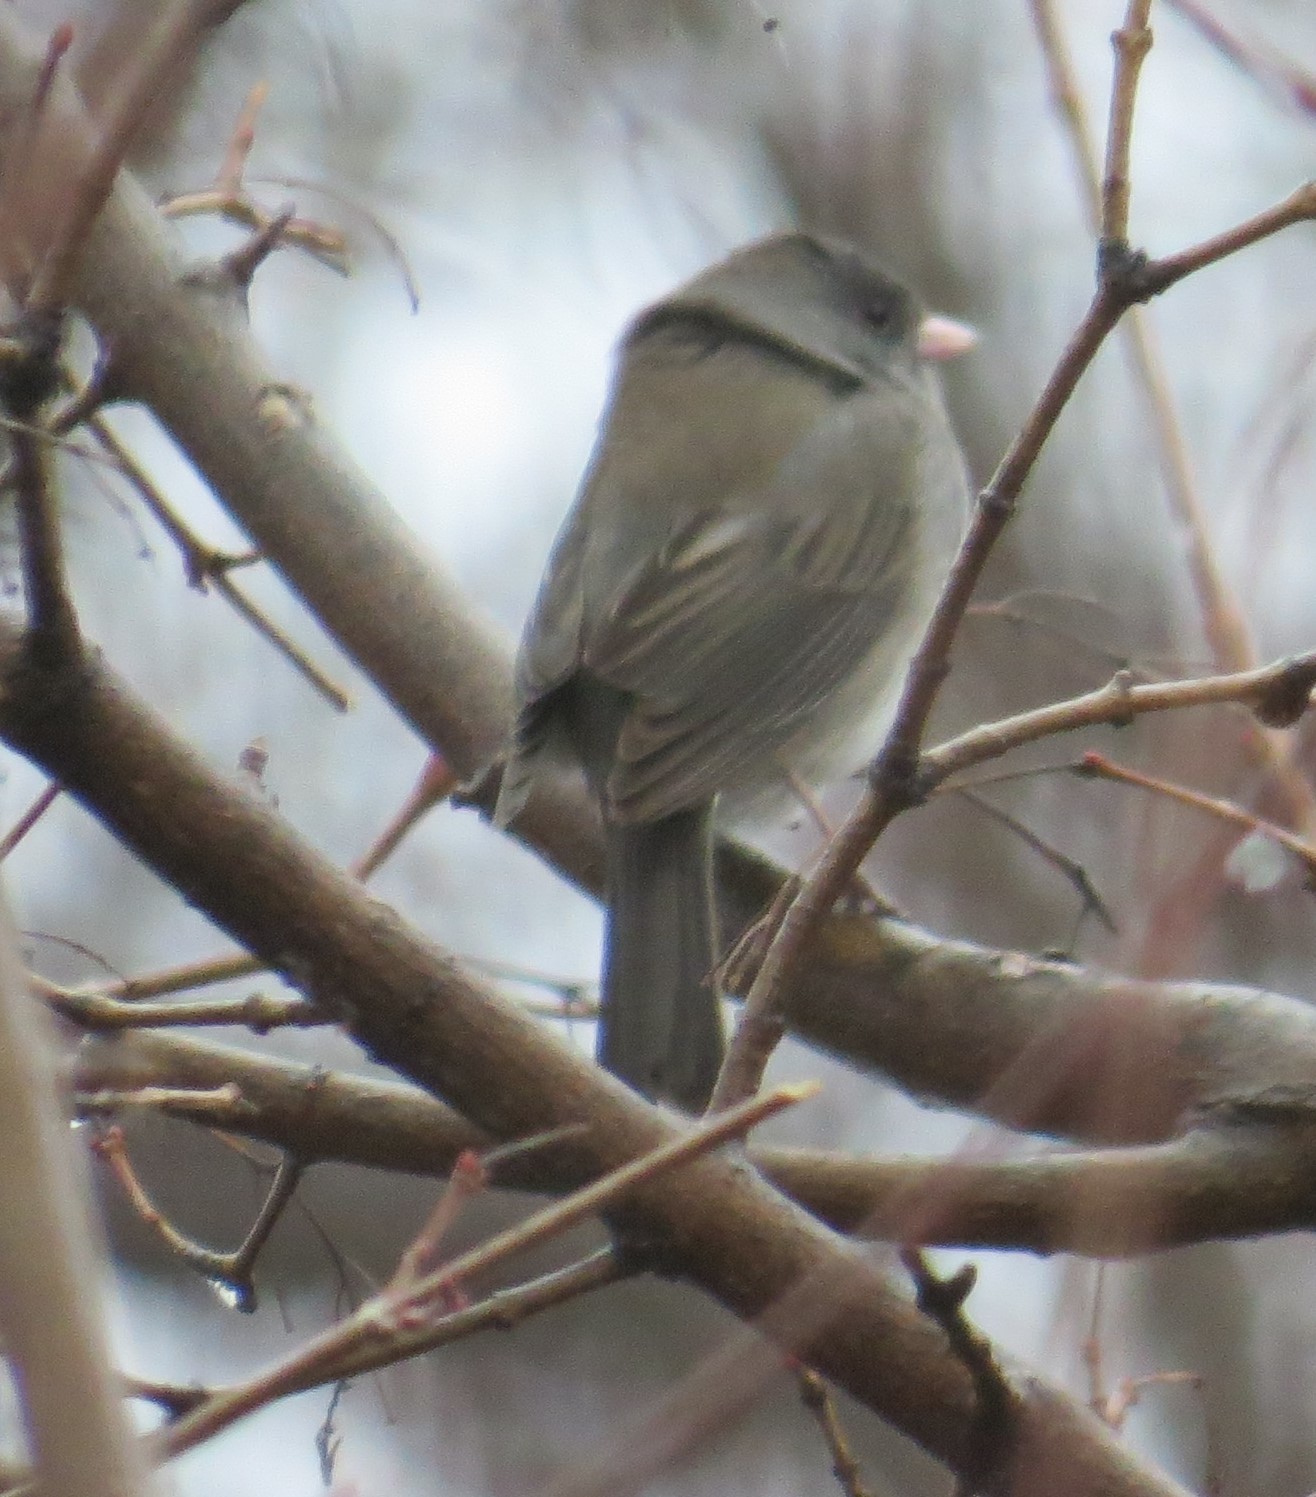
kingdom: Animalia
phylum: Chordata
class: Aves
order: Passeriformes
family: Passerellidae
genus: Junco
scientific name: Junco hyemalis
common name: Dark-eyed junco
